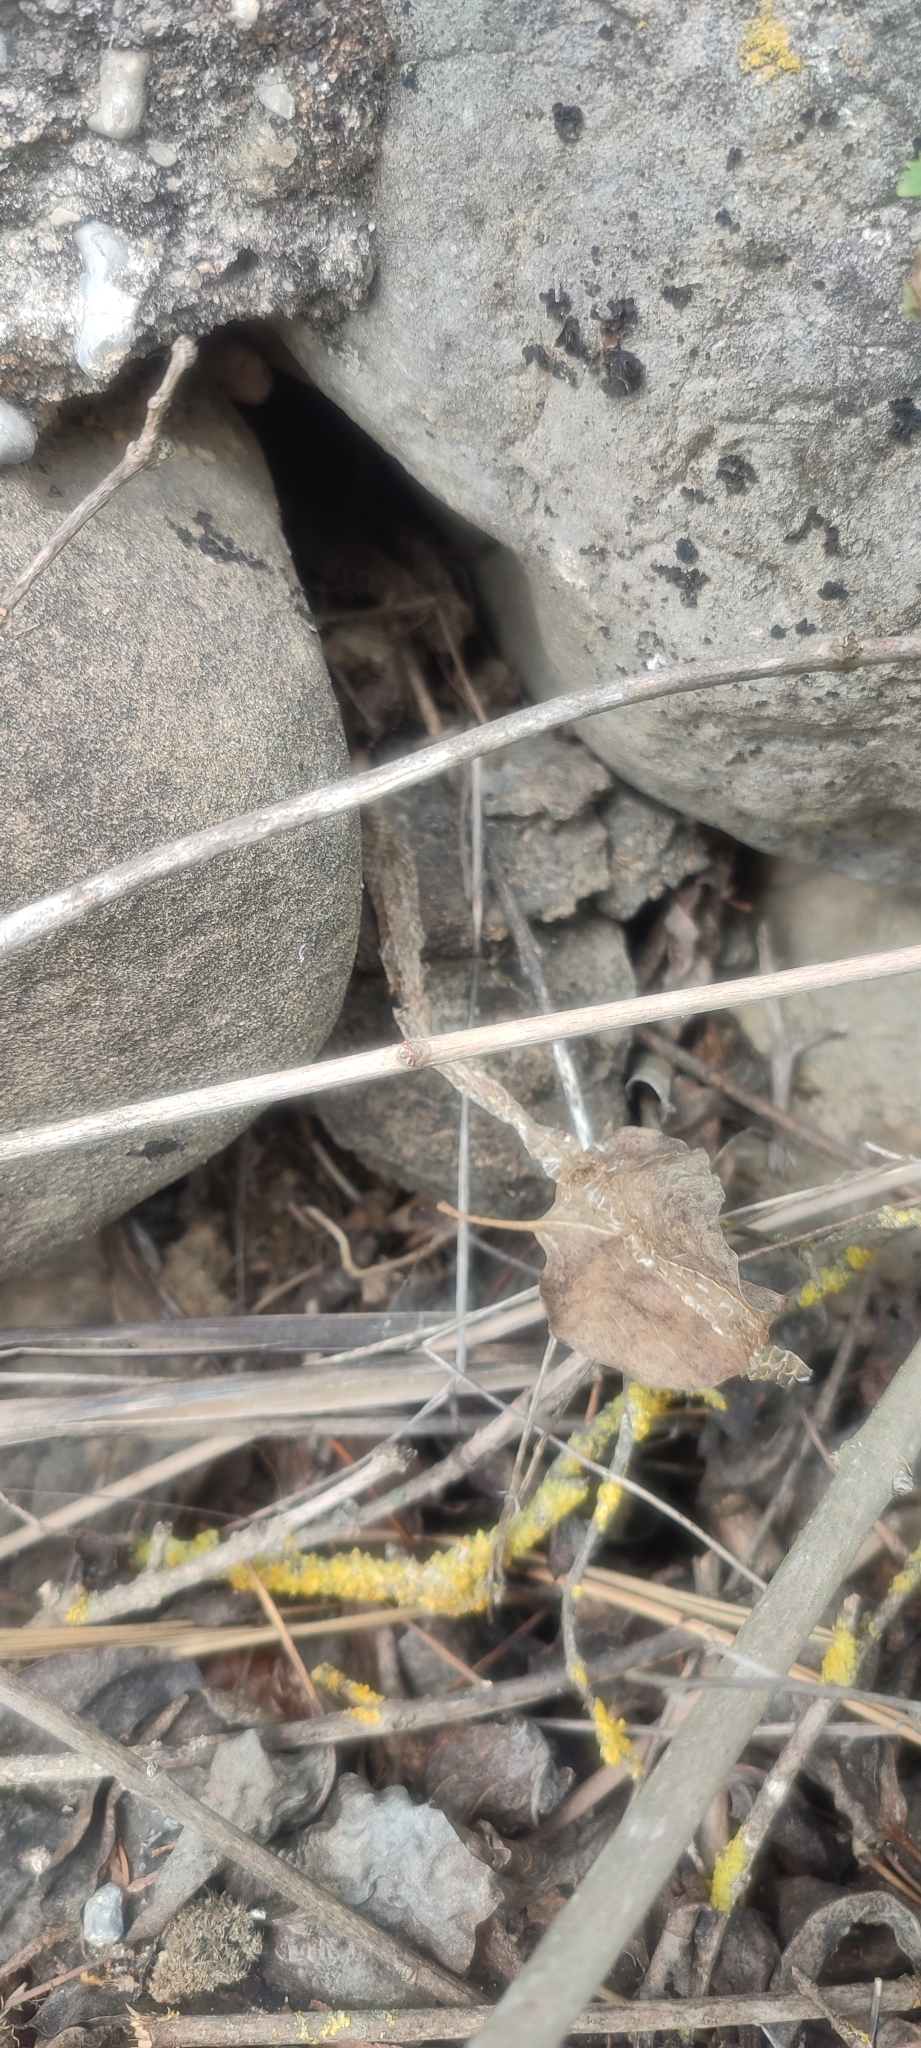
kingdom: Animalia
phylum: Chordata
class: Squamata
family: Colubridae
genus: Natrix
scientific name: Natrix maura
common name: Viperine water snake
